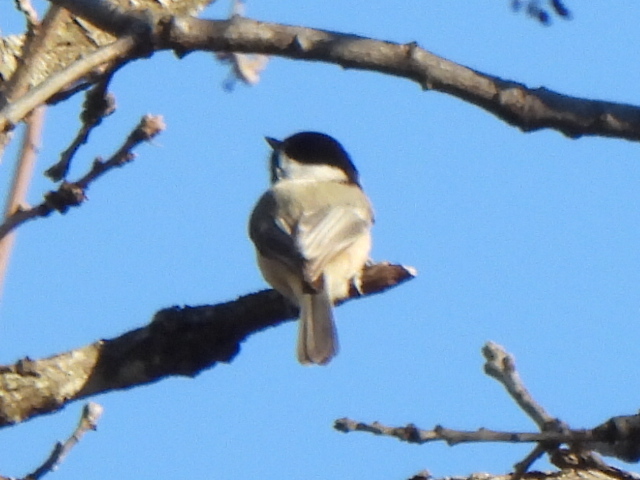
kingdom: Animalia
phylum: Chordata
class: Aves
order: Passeriformes
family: Paridae
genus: Poecile
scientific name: Poecile carolinensis
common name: Carolina chickadee
